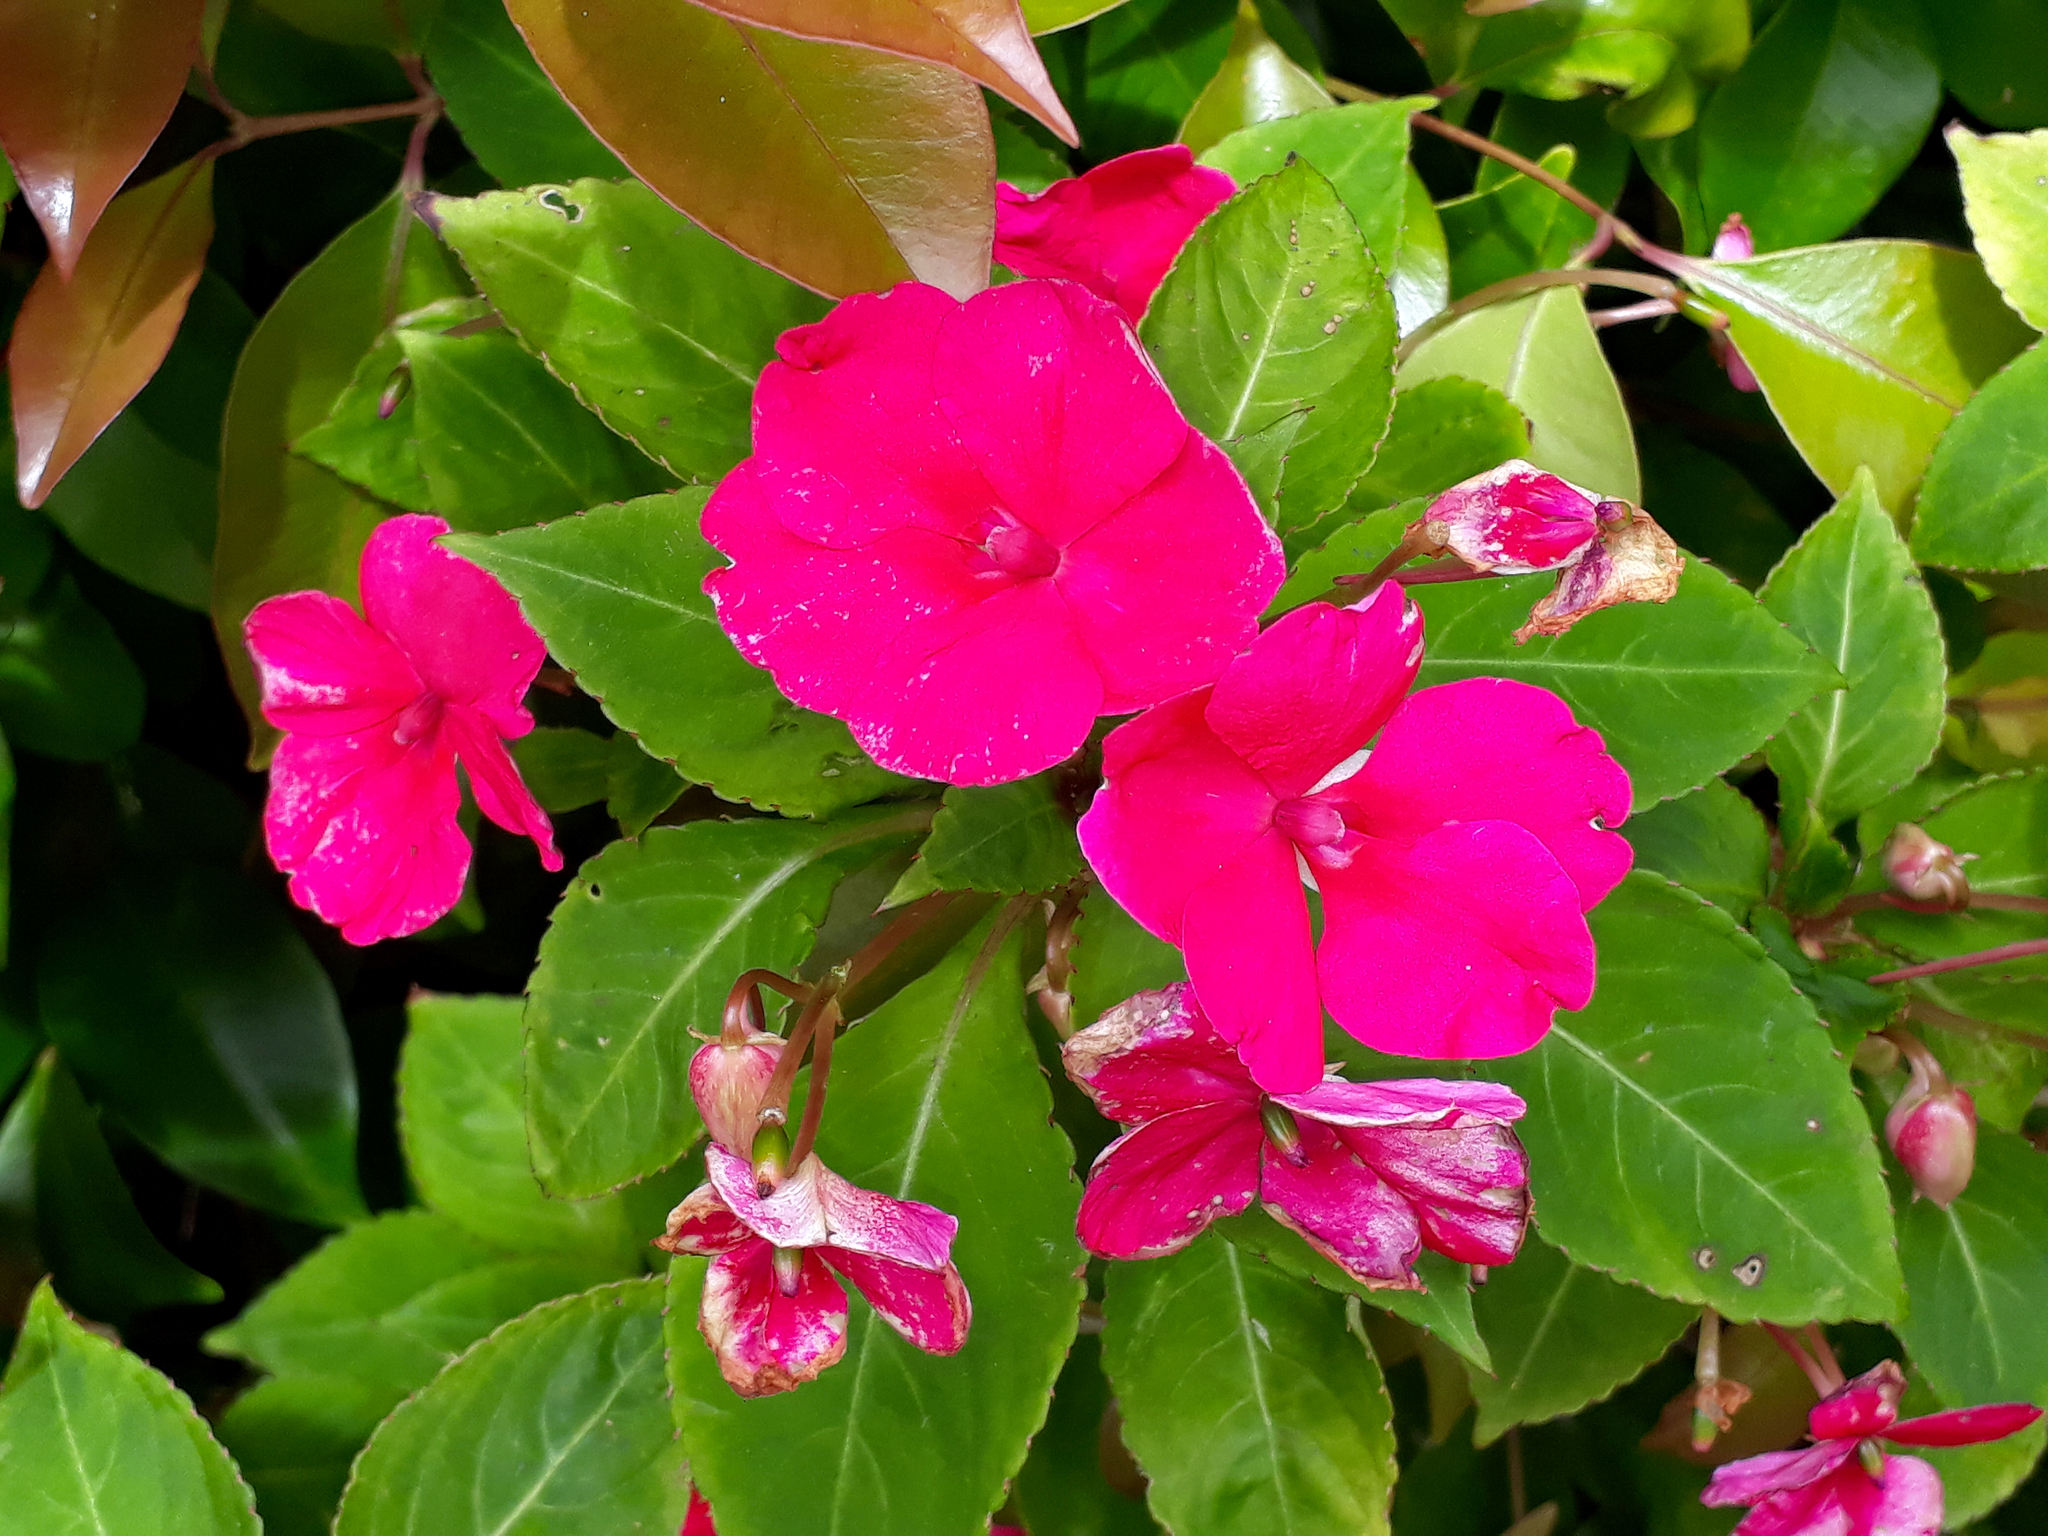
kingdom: Plantae
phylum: Tracheophyta
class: Magnoliopsida
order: Ericales
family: Balsaminaceae
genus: Impatiens
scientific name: Impatiens walleriana
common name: Buzzy lizzy
